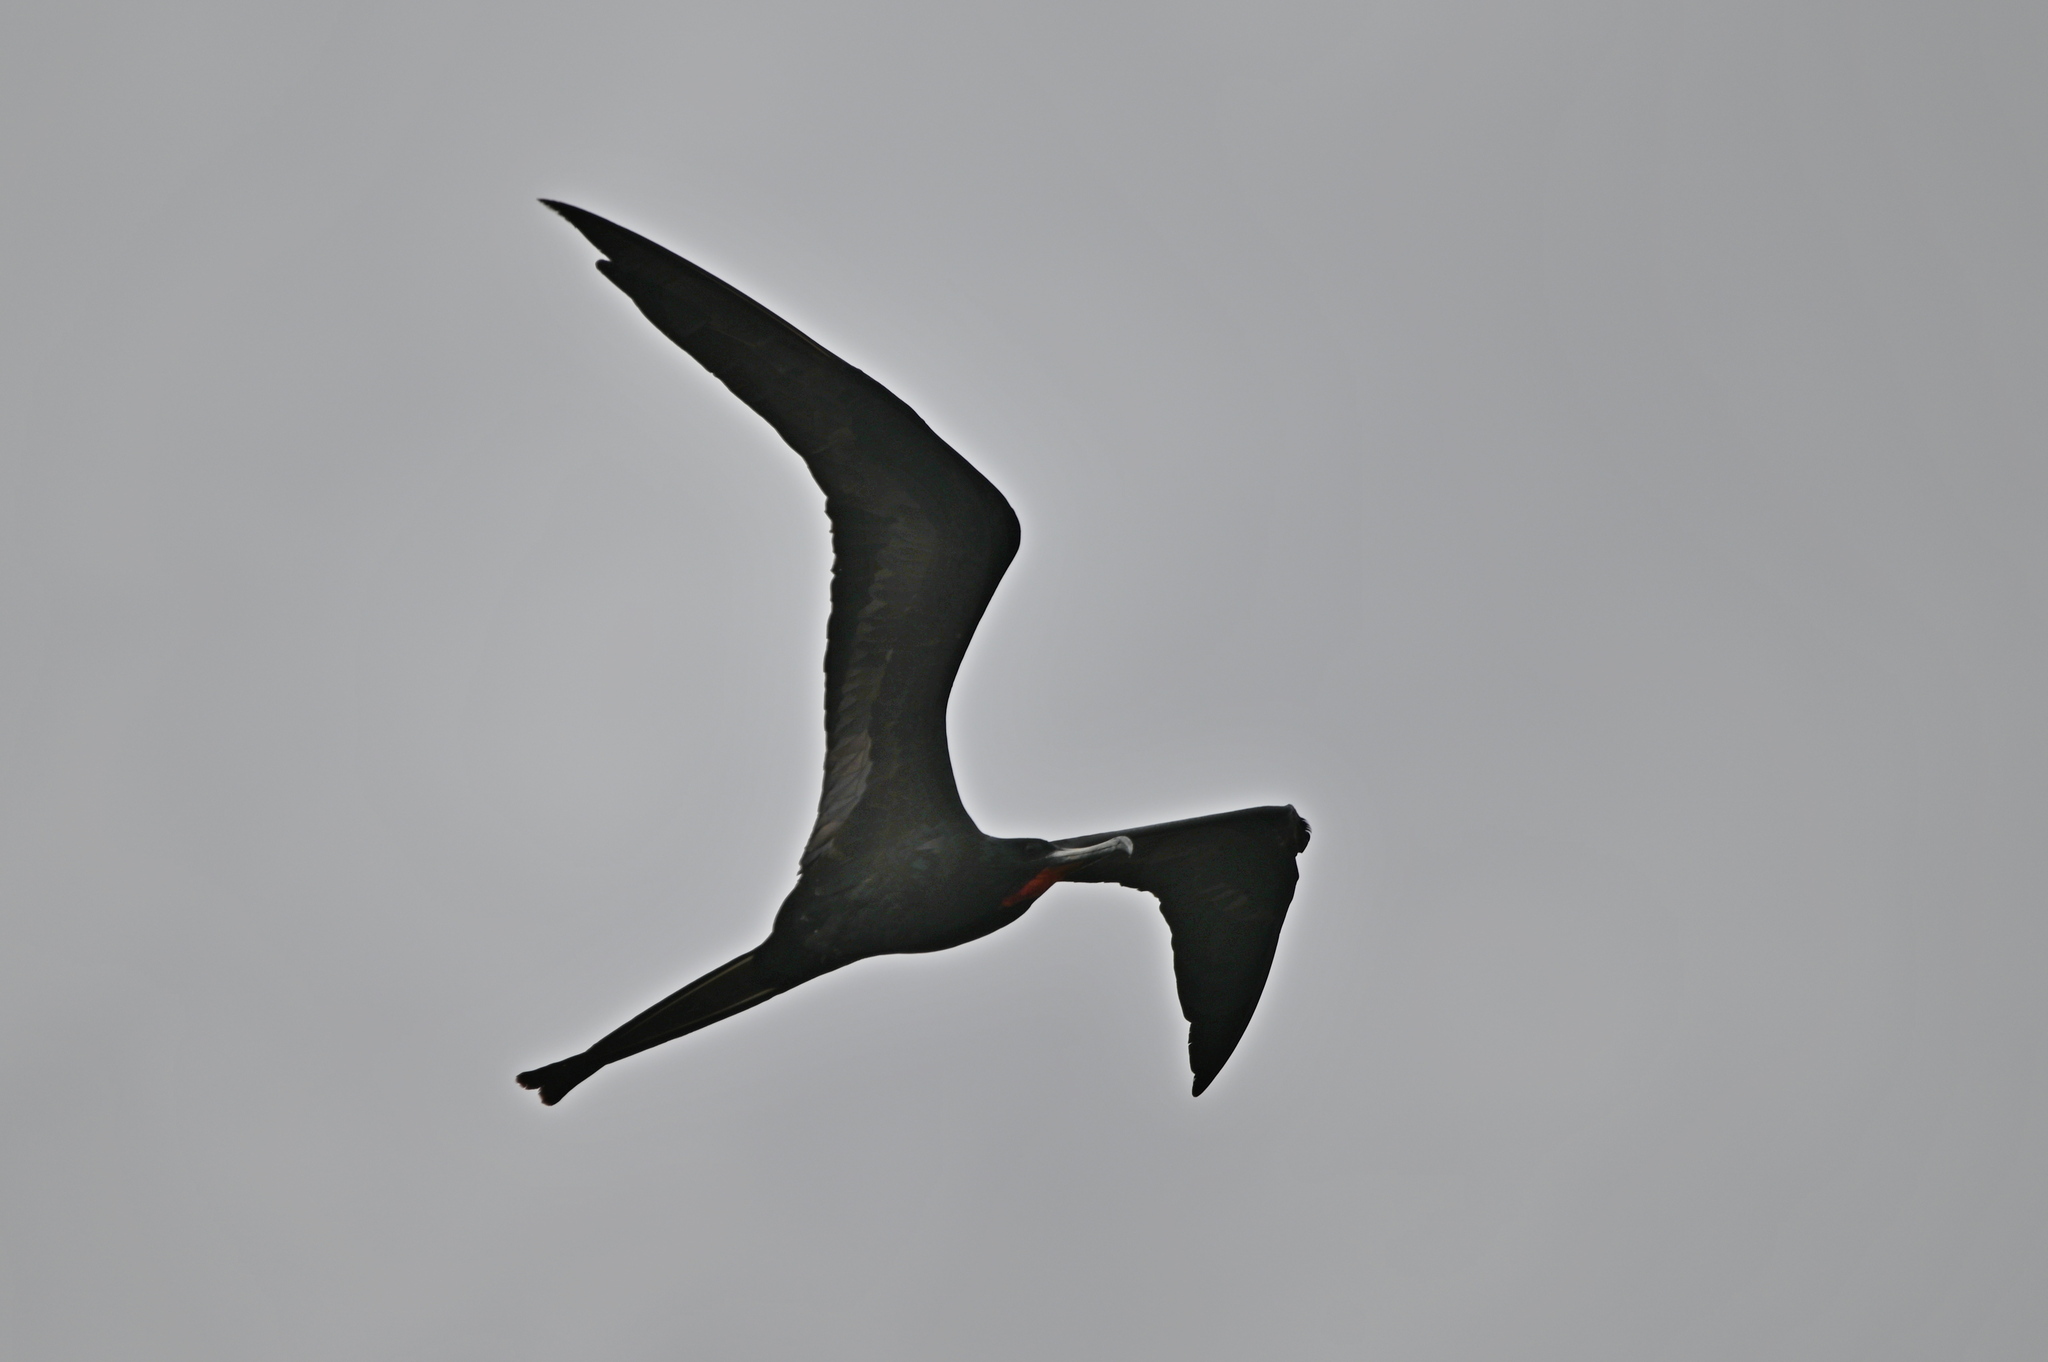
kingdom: Animalia
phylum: Chordata
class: Aves
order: Suliformes
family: Fregatidae
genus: Fregata
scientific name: Fregata magnificens
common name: Magnificent frigatebird
